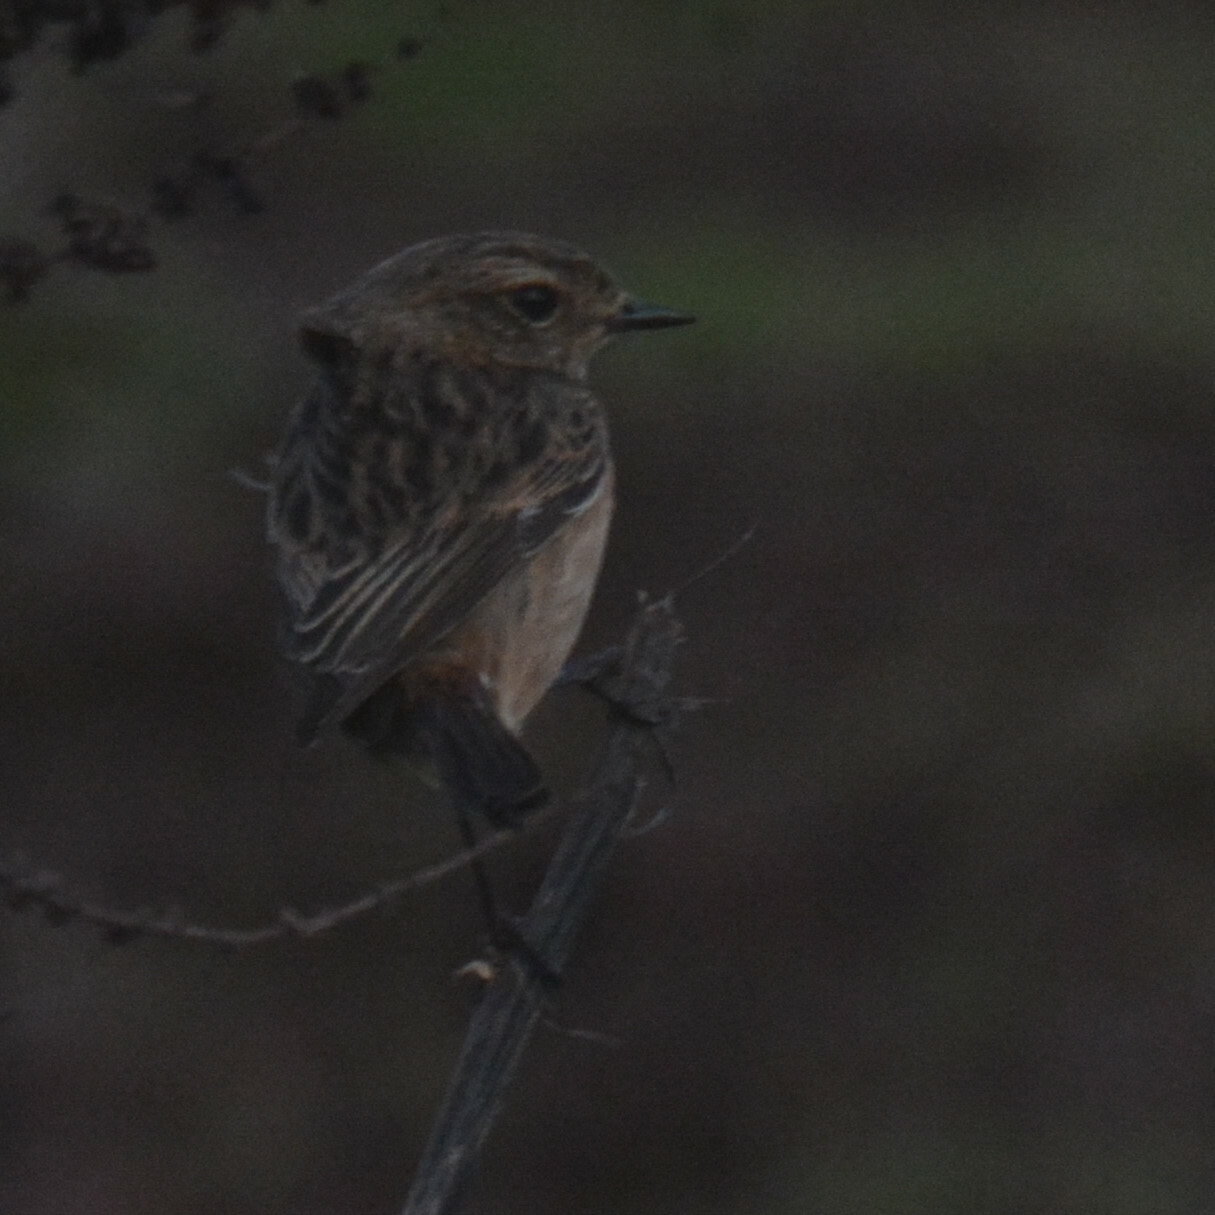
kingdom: Animalia
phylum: Chordata
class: Aves
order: Passeriformes
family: Muscicapidae
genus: Saxicola
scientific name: Saxicola rubicola
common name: European stonechat
